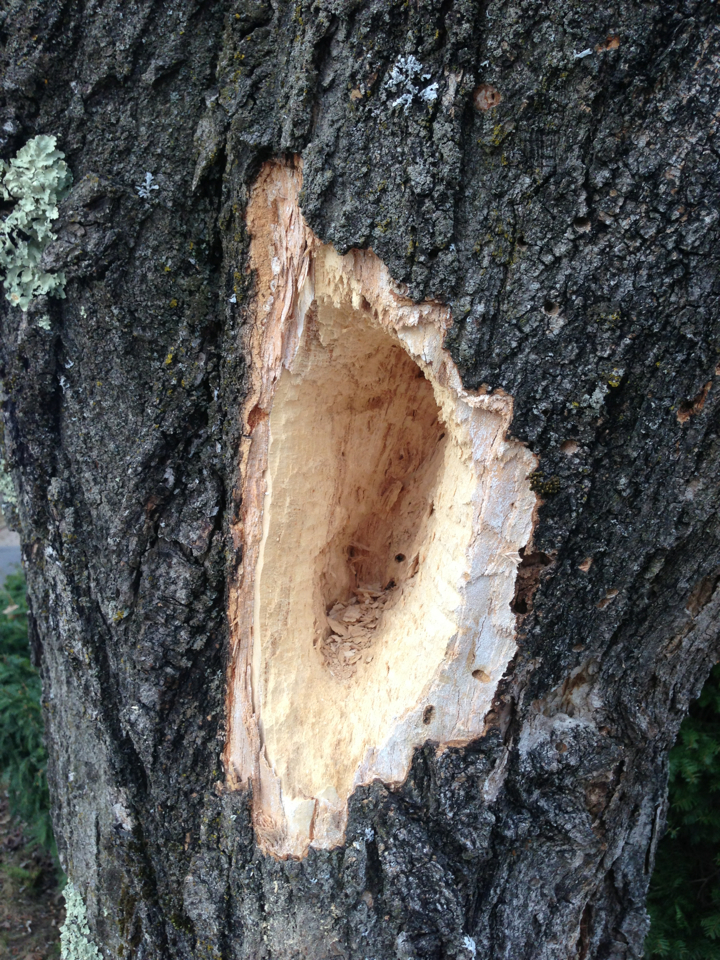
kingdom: Animalia
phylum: Chordata
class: Aves
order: Piciformes
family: Picidae
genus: Dryocopus
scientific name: Dryocopus pileatus
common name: Pileated woodpecker
